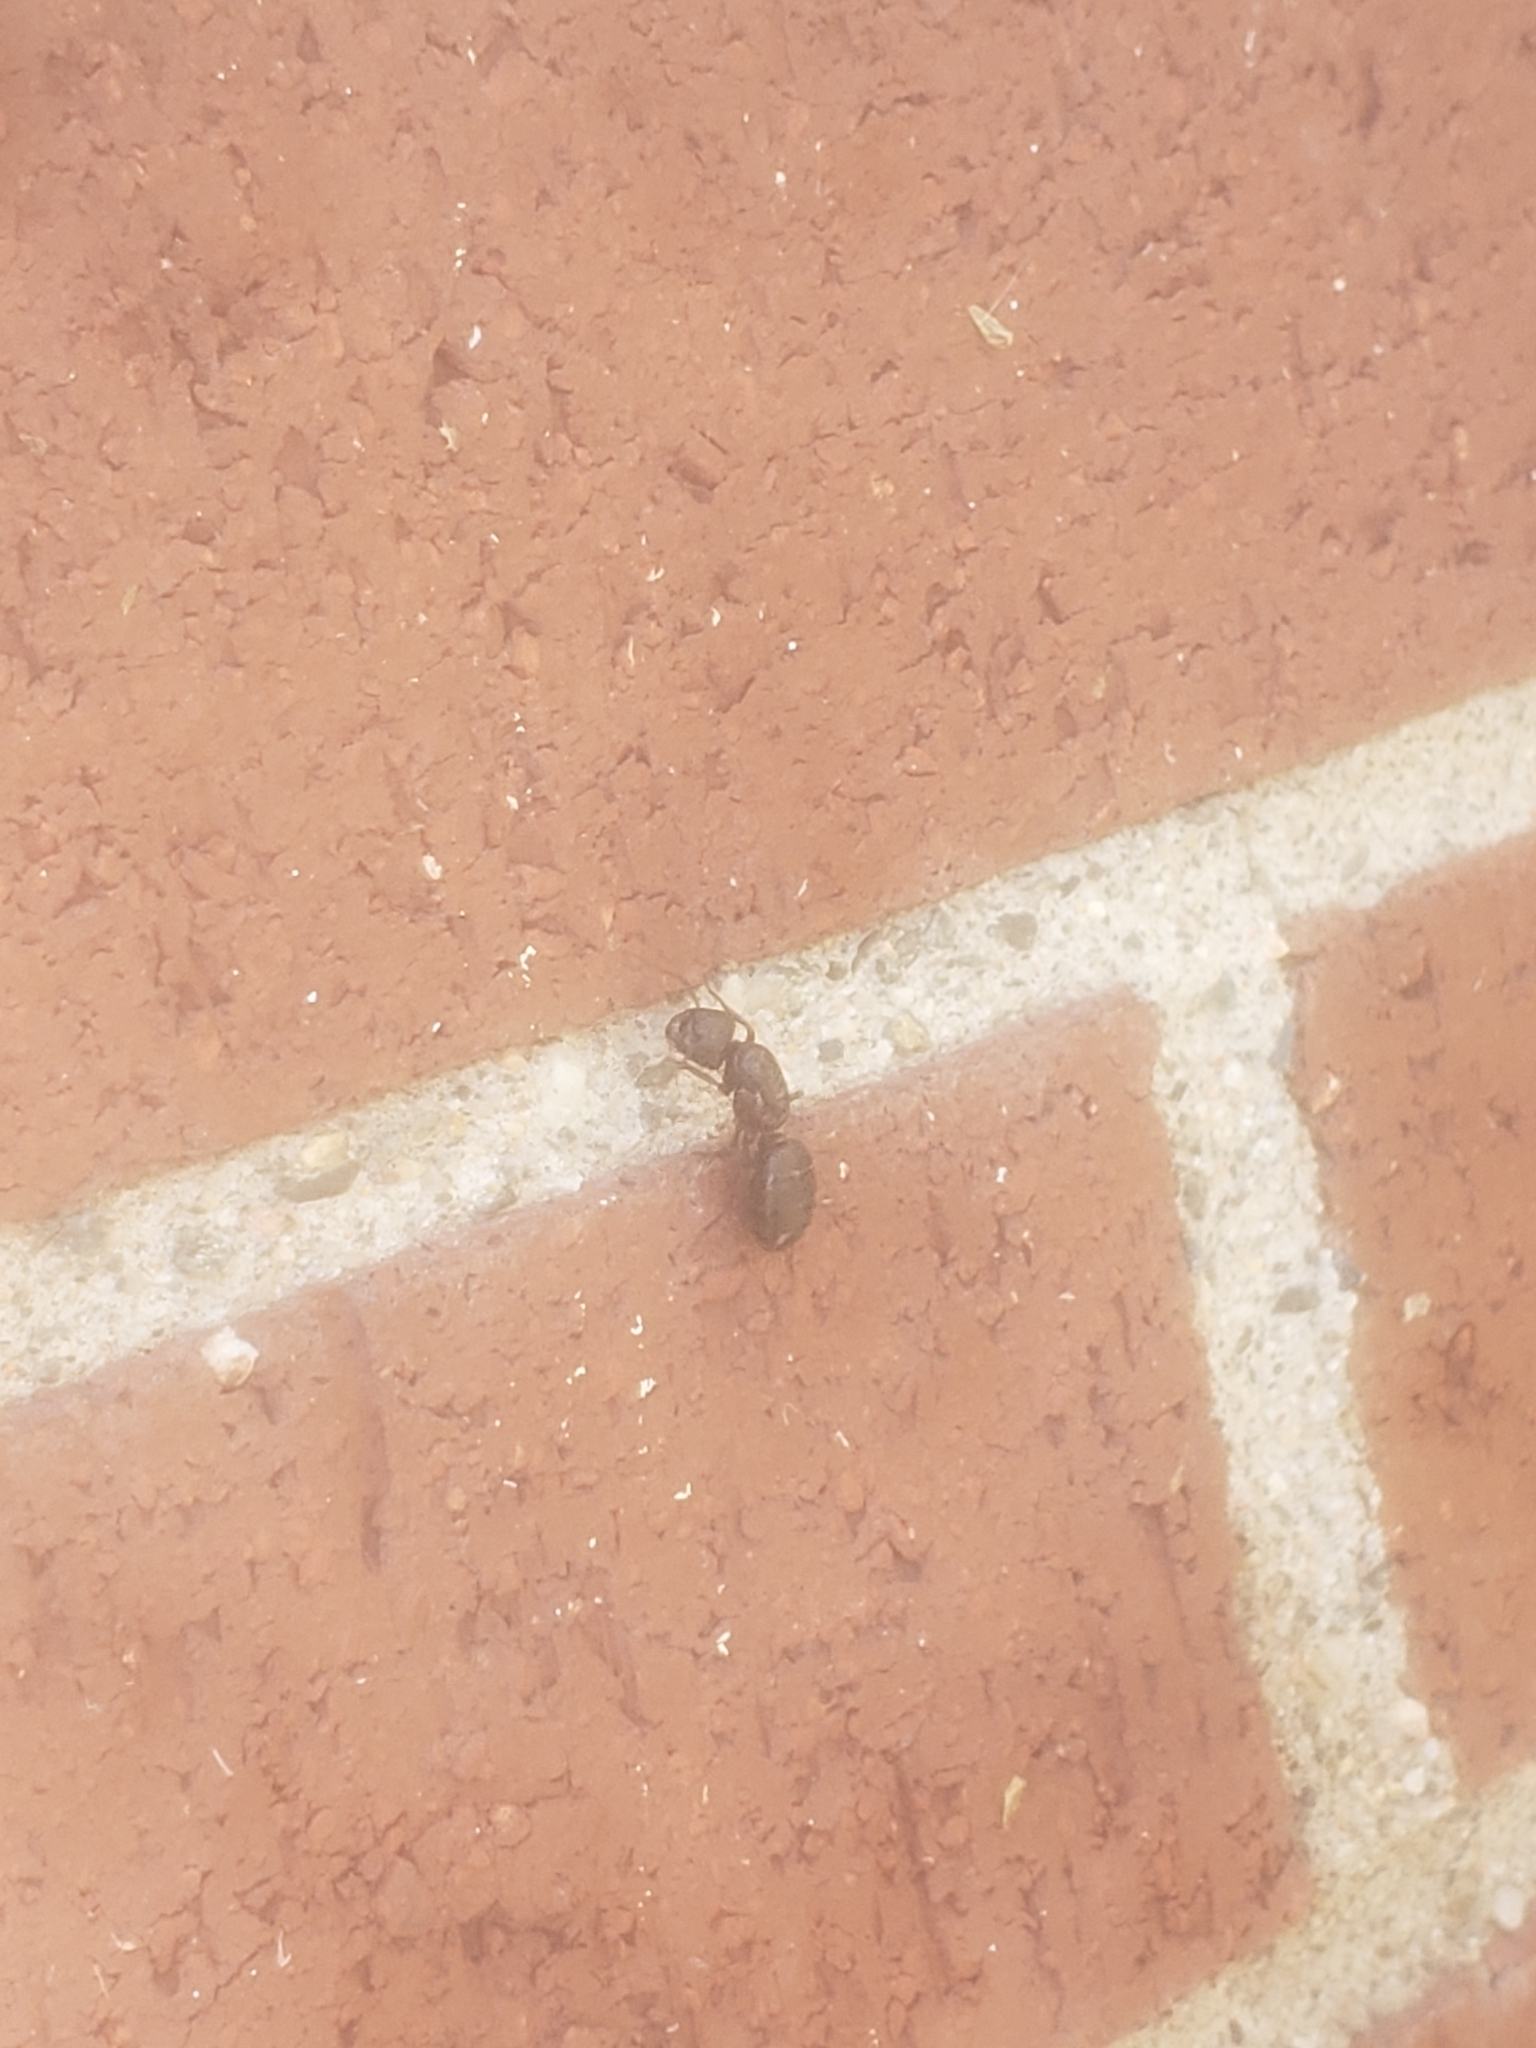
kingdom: Animalia
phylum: Arthropoda
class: Insecta
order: Hymenoptera
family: Formicidae
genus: Camponotus
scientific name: Camponotus herculeanus
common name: Hercules ant
